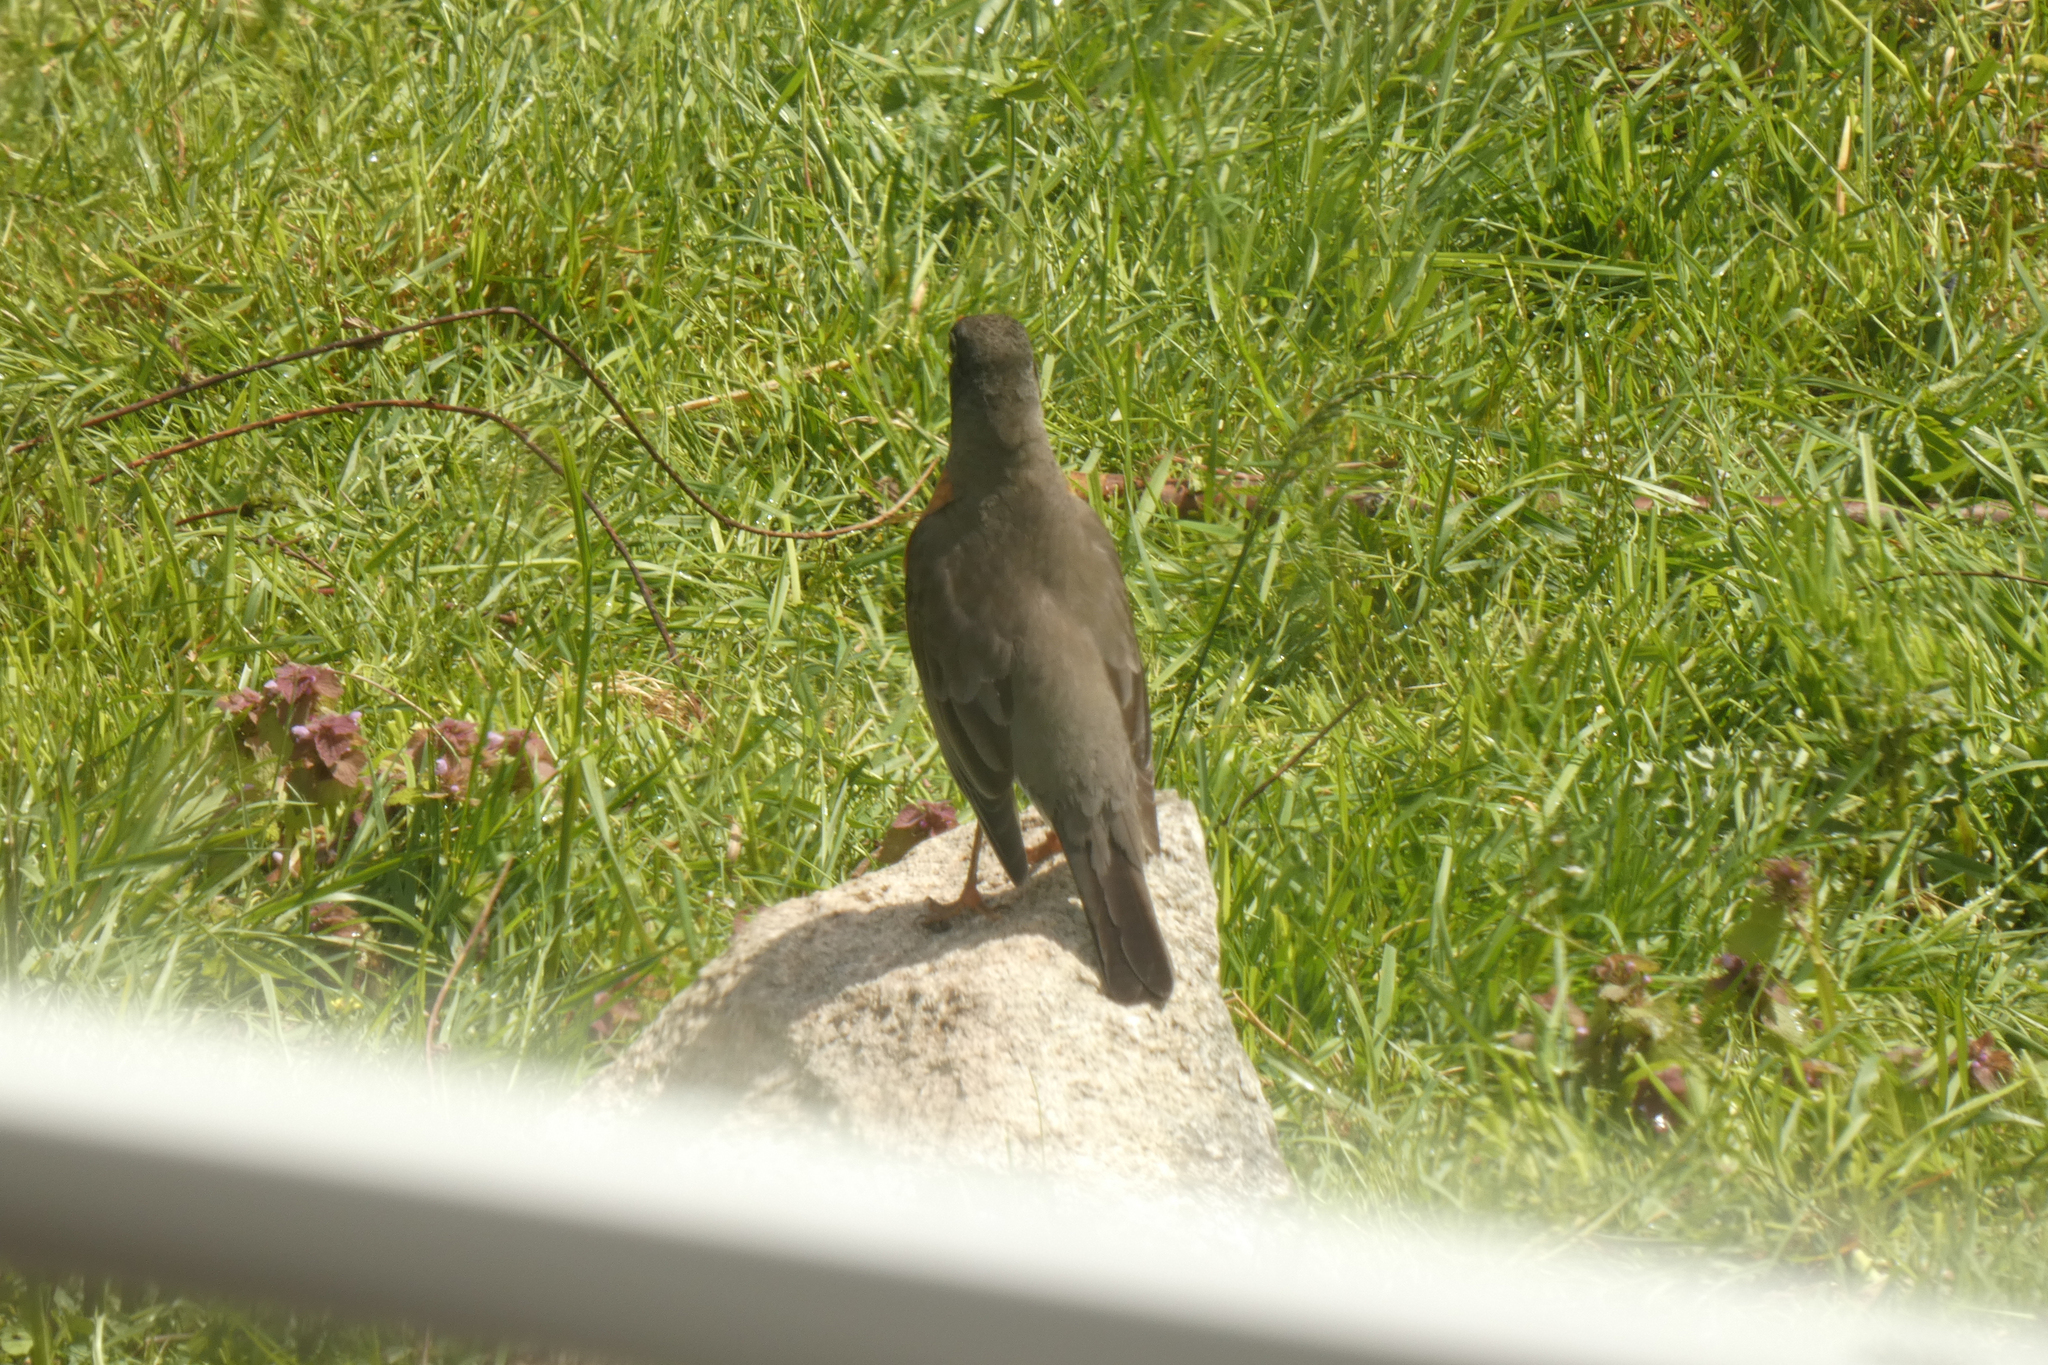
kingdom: Animalia
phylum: Chordata
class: Aves
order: Passeriformes
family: Turdidae
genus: Turdus
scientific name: Turdus migratorius
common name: American robin
